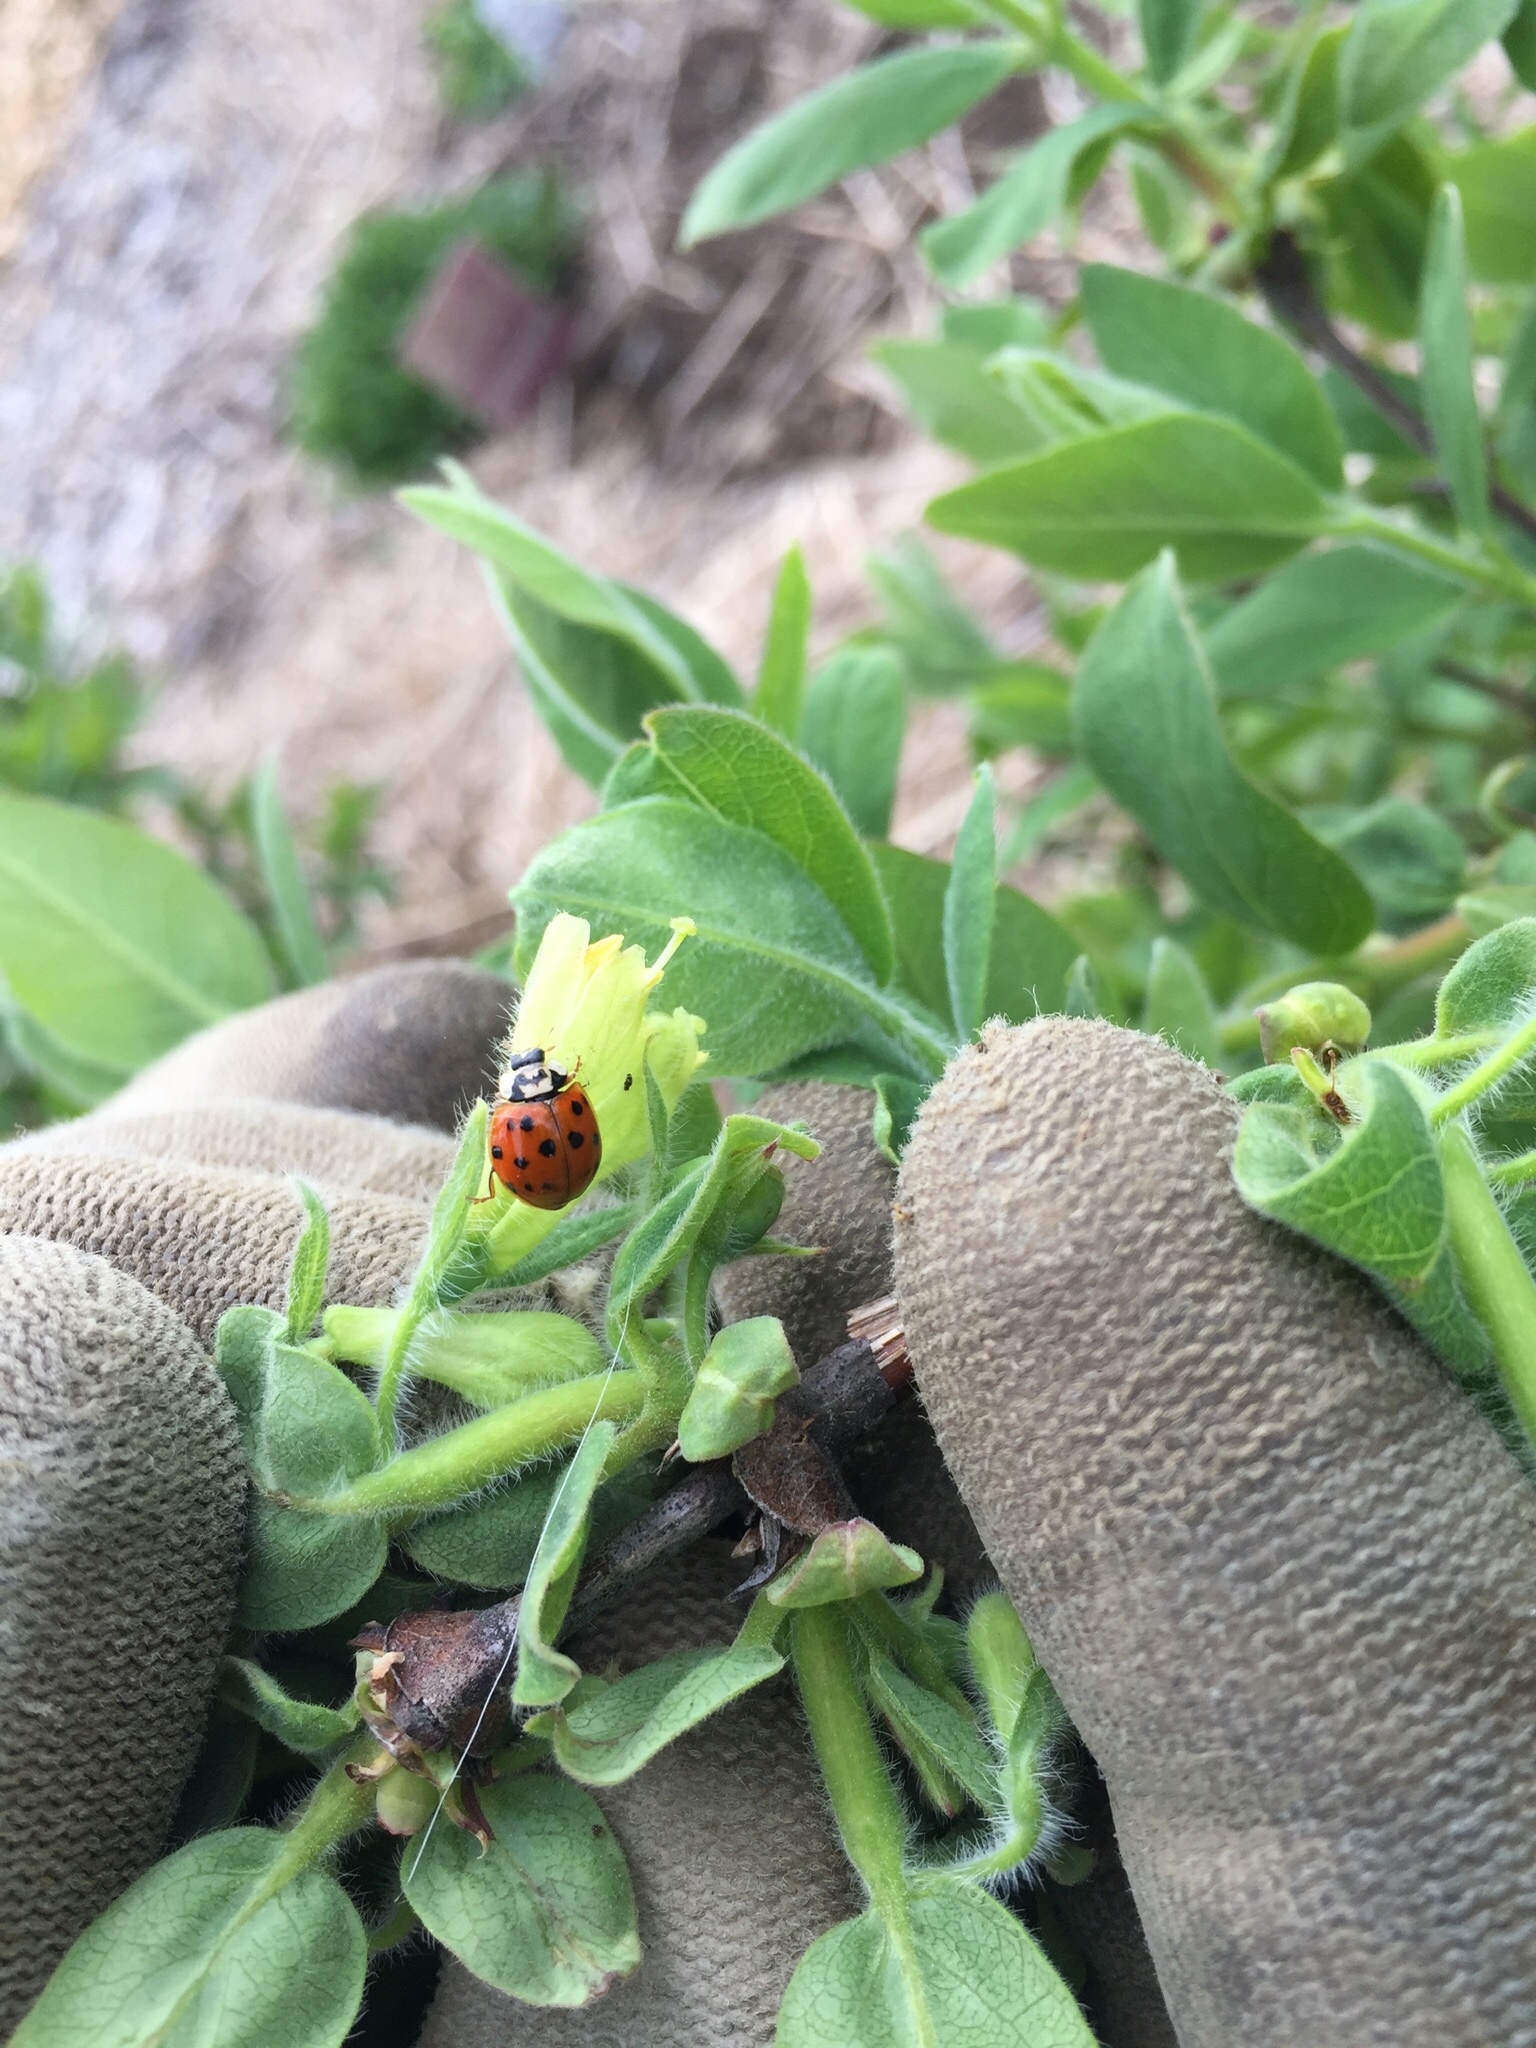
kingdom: Animalia
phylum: Arthropoda
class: Insecta
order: Coleoptera
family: Coccinellidae
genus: Harmonia
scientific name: Harmonia axyridis
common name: Harlequin ladybird
